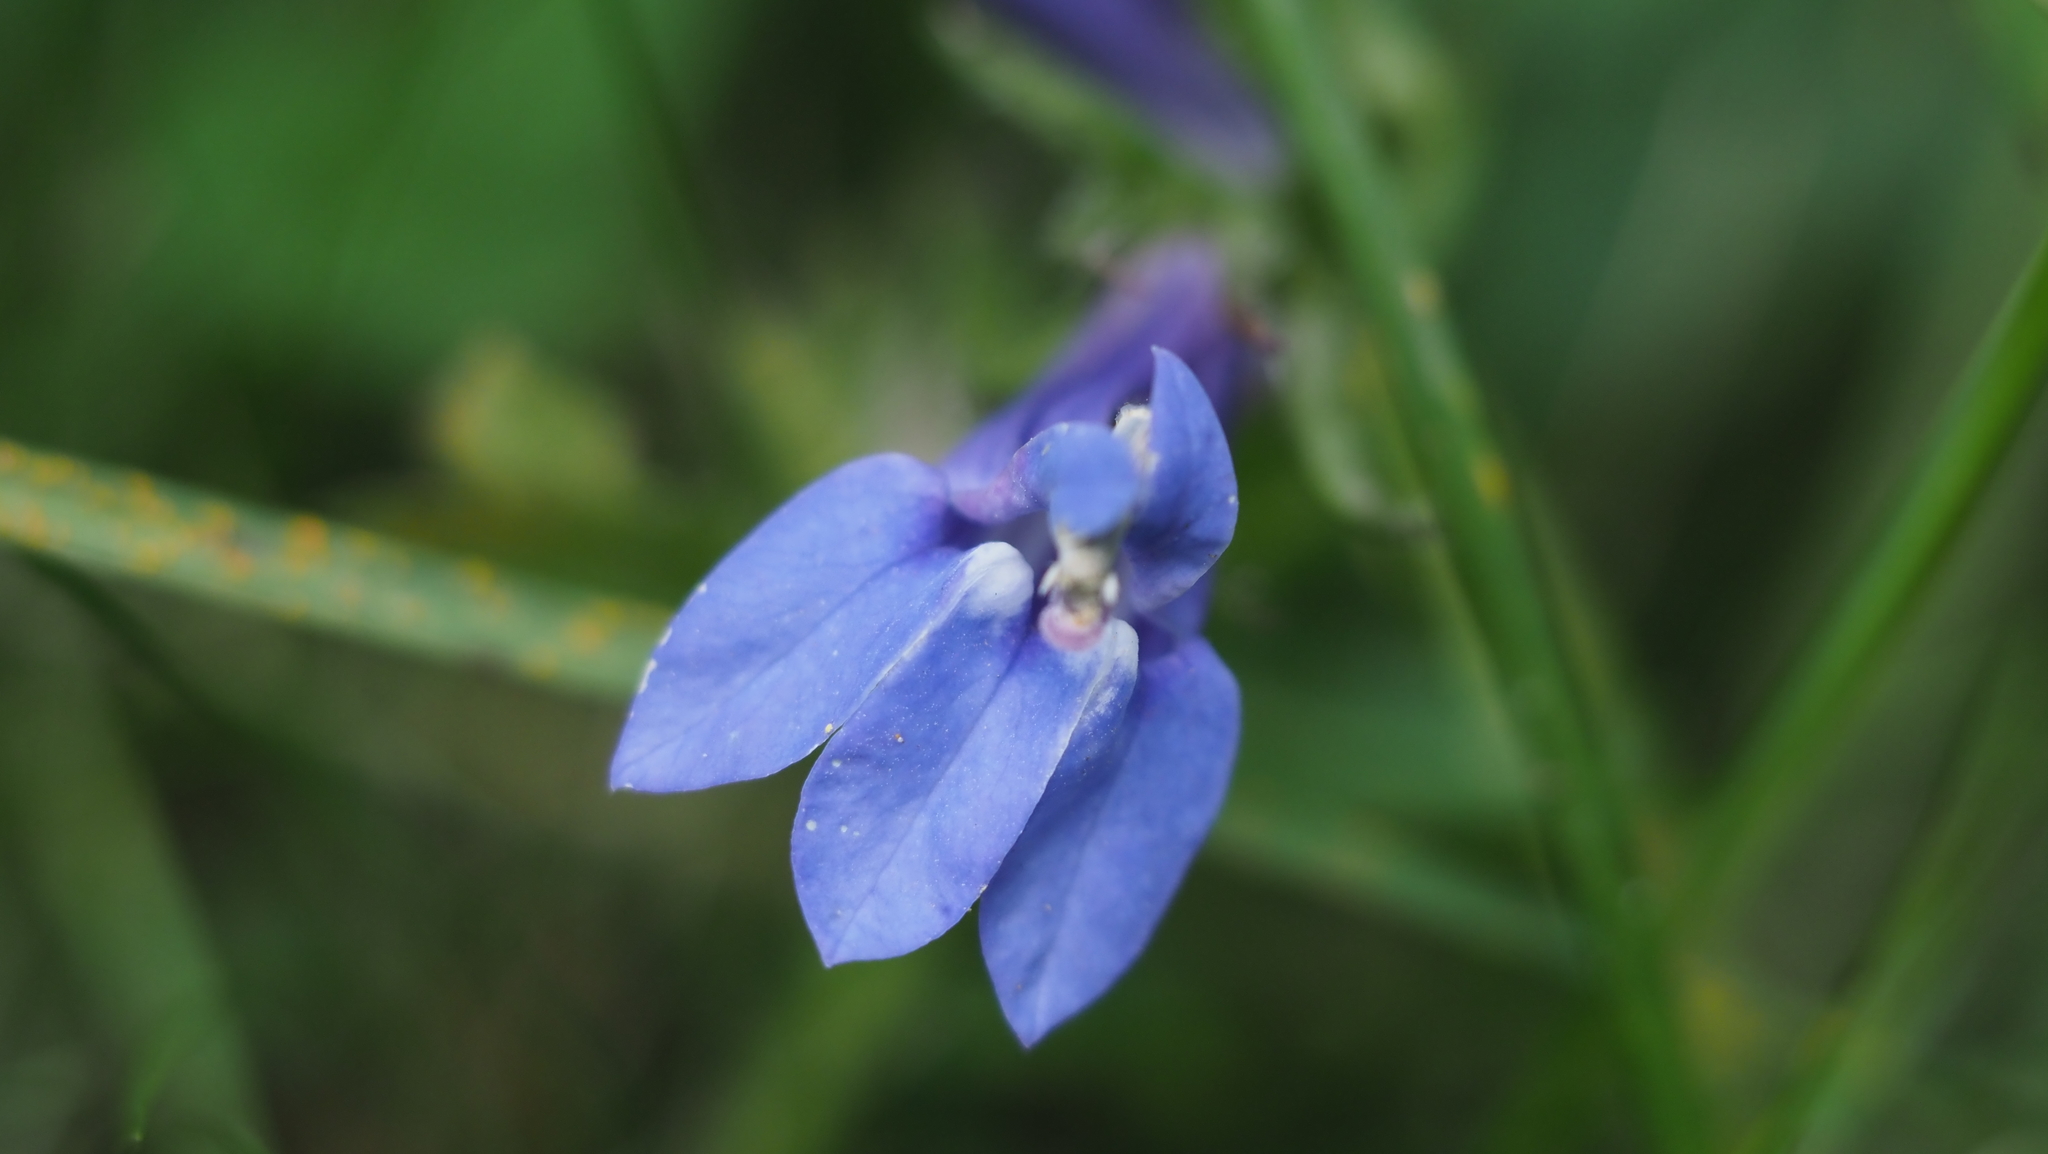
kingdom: Plantae
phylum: Tracheophyta
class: Magnoliopsida
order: Asterales
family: Campanulaceae
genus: Lobelia
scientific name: Lobelia siphilitica
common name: Great lobelia
